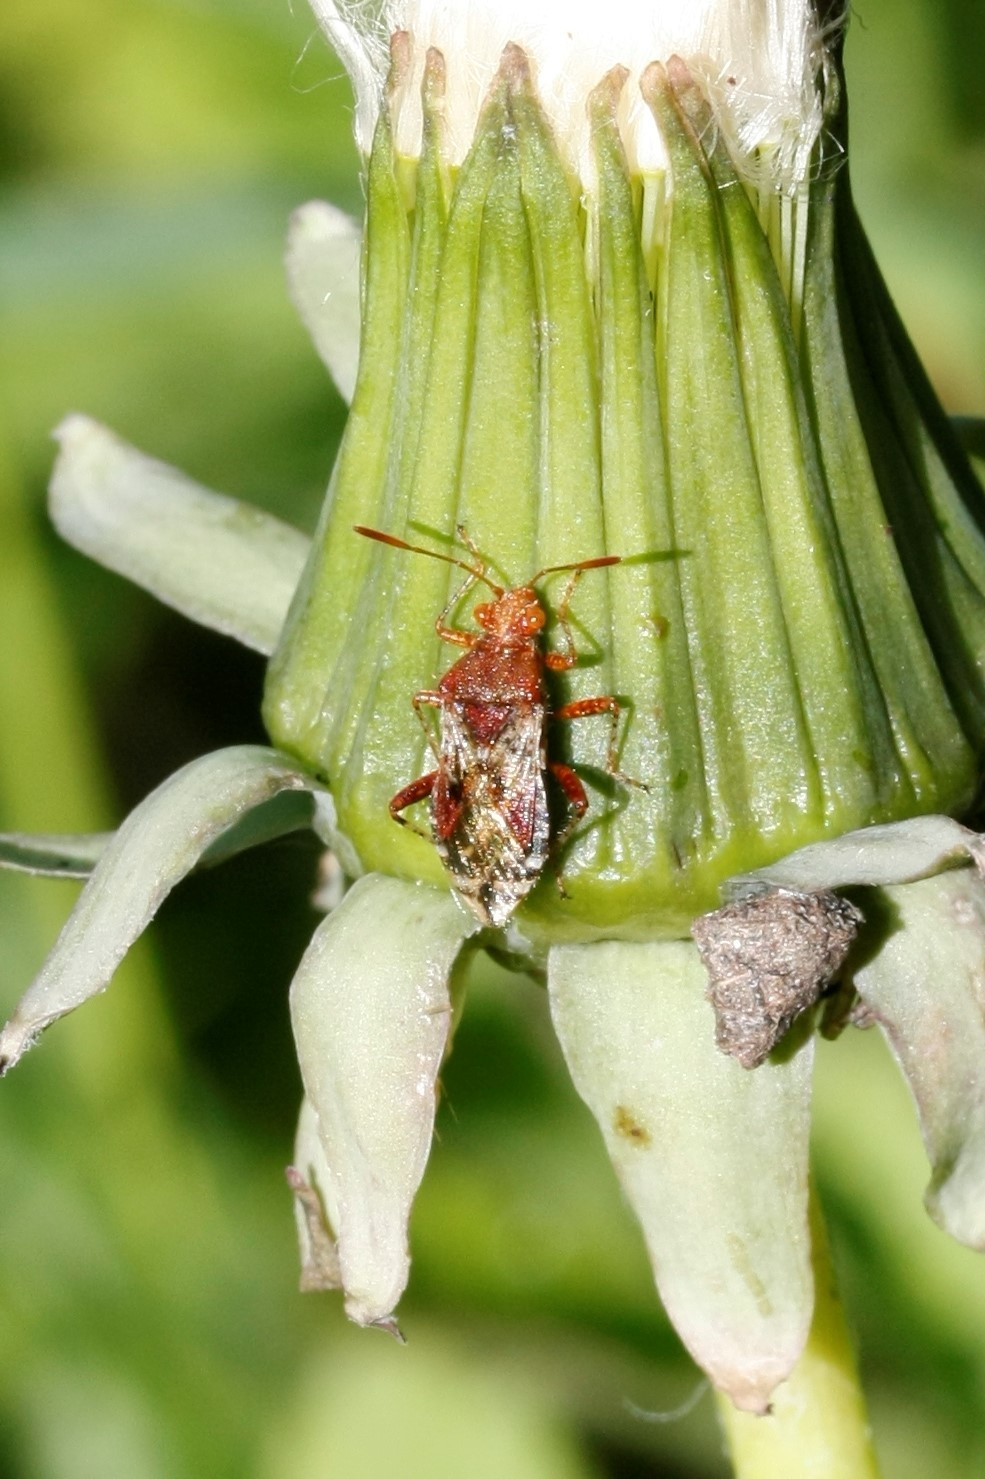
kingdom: Animalia
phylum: Arthropoda
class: Insecta
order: Hemiptera
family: Rhopalidae
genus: Rhopalus
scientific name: Rhopalus subrufus
